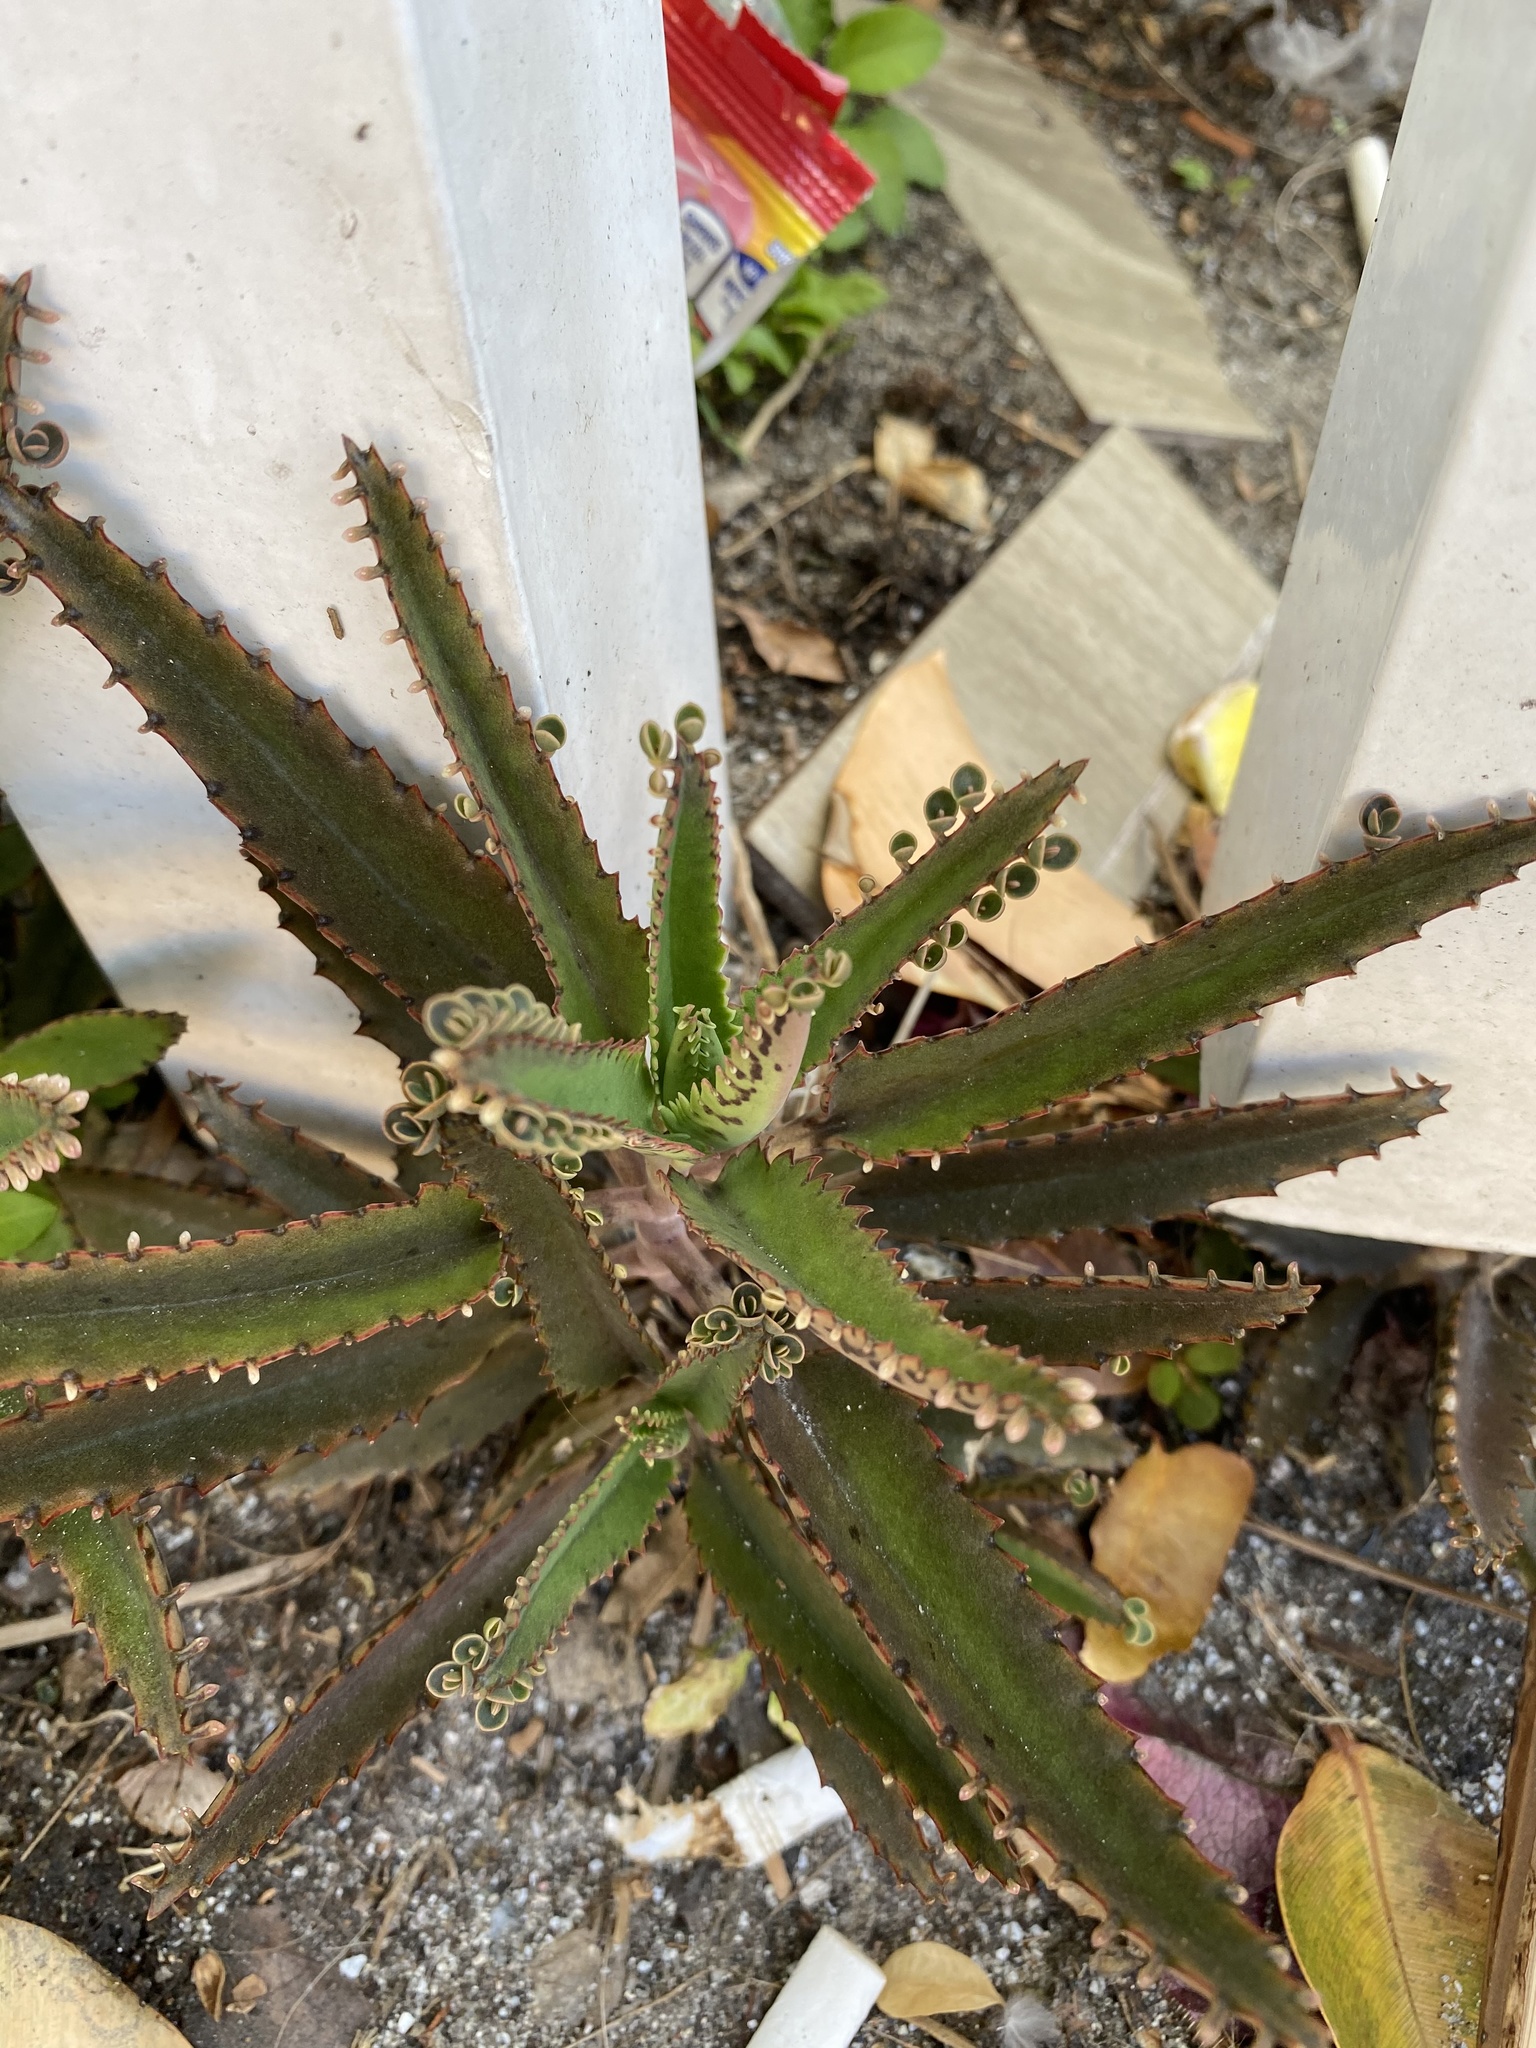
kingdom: Plantae
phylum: Tracheophyta
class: Magnoliopsida
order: Saxifragales
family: Crassulaceae
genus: Kalanchoe
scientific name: Kalanchoe houghtonii
